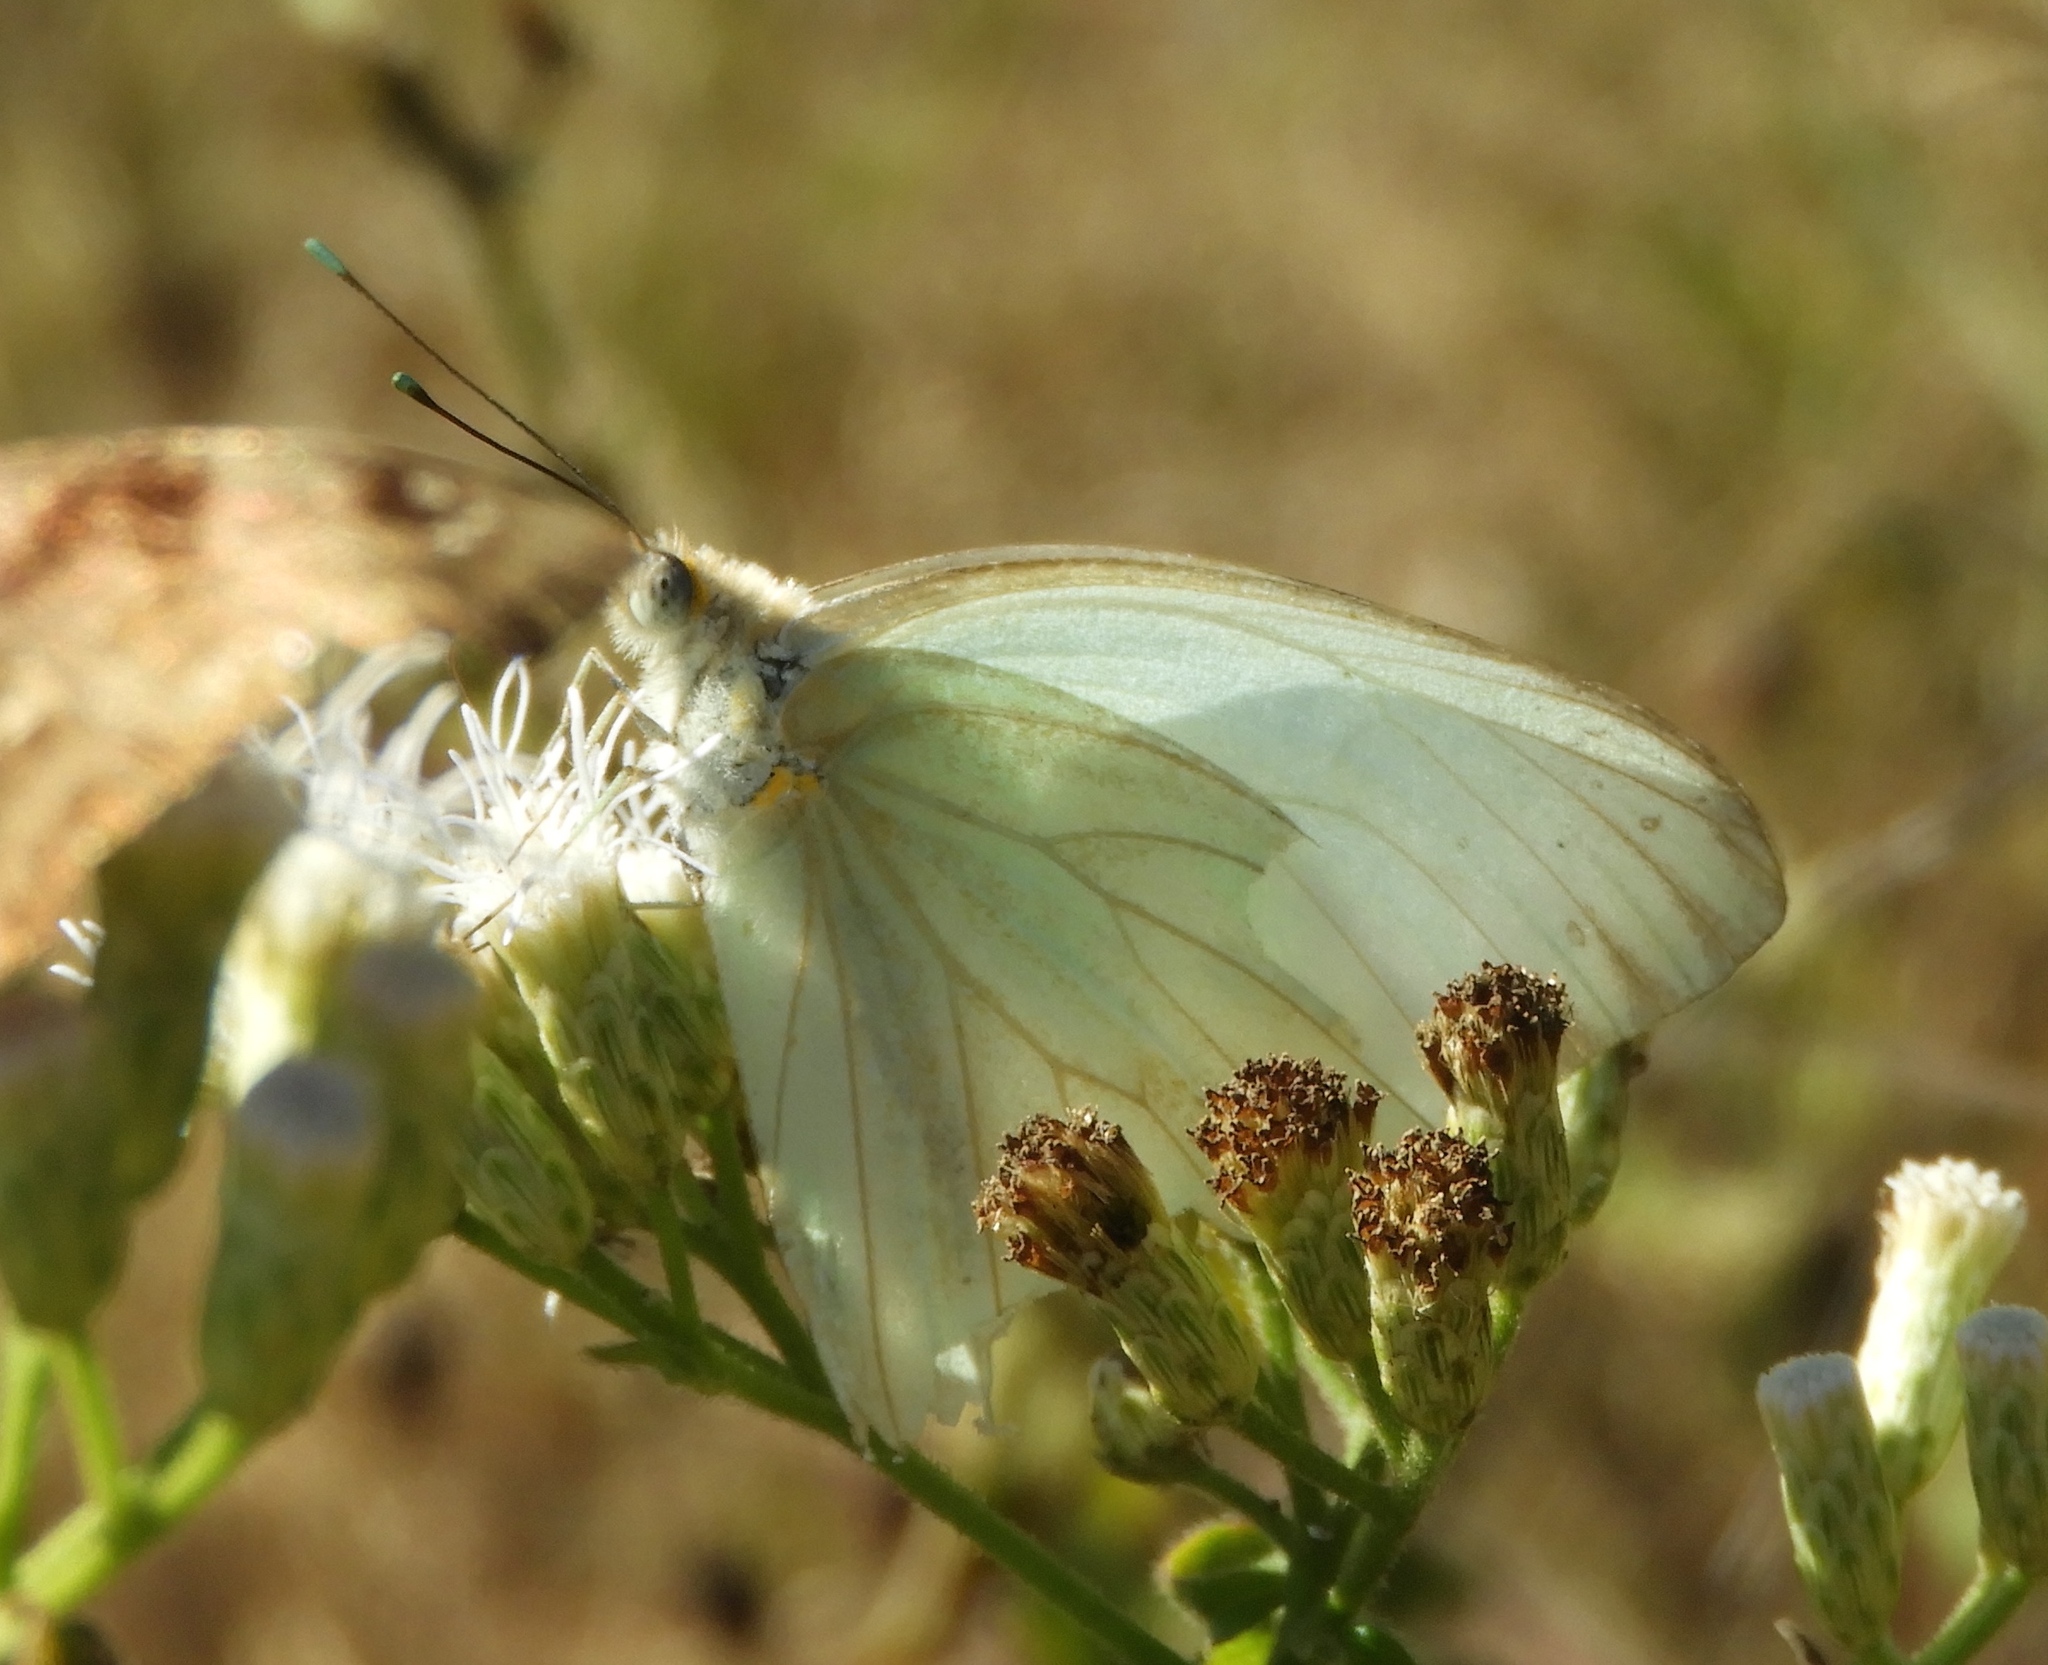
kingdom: Animalia
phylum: Arthropoda
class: Insecta
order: Lepidoptera
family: Pieridae
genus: Ascia
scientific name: Ascia monuste
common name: Great southern white
